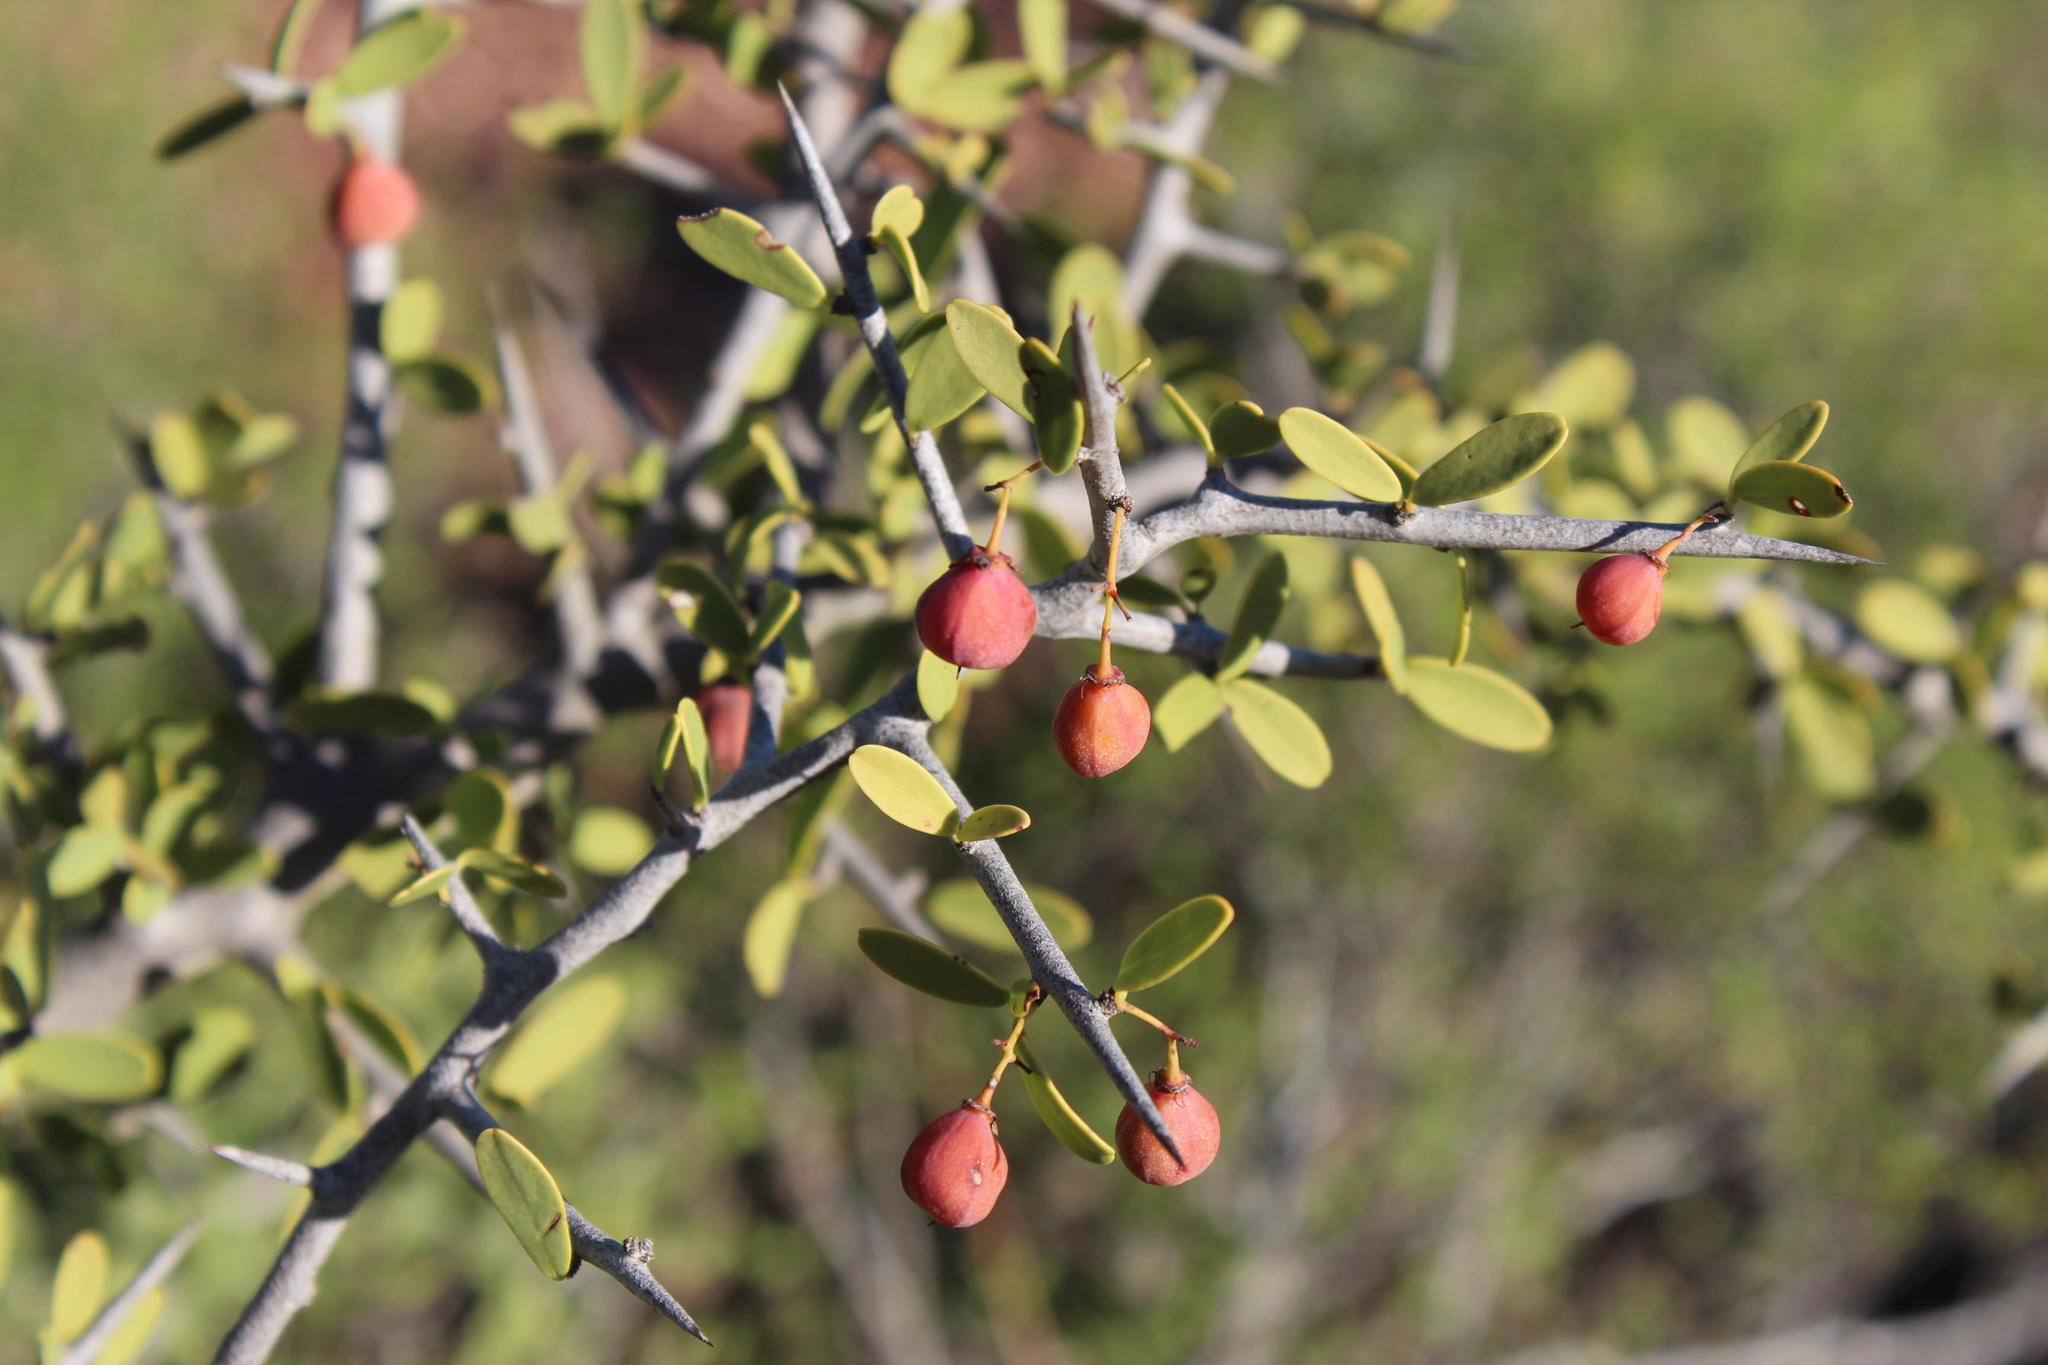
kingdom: Plantae
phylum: Tracheophyta
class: Magnoliopsida
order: Celastrales
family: Celastraceae
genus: Gloveria
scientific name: Gloveria integrifolia
